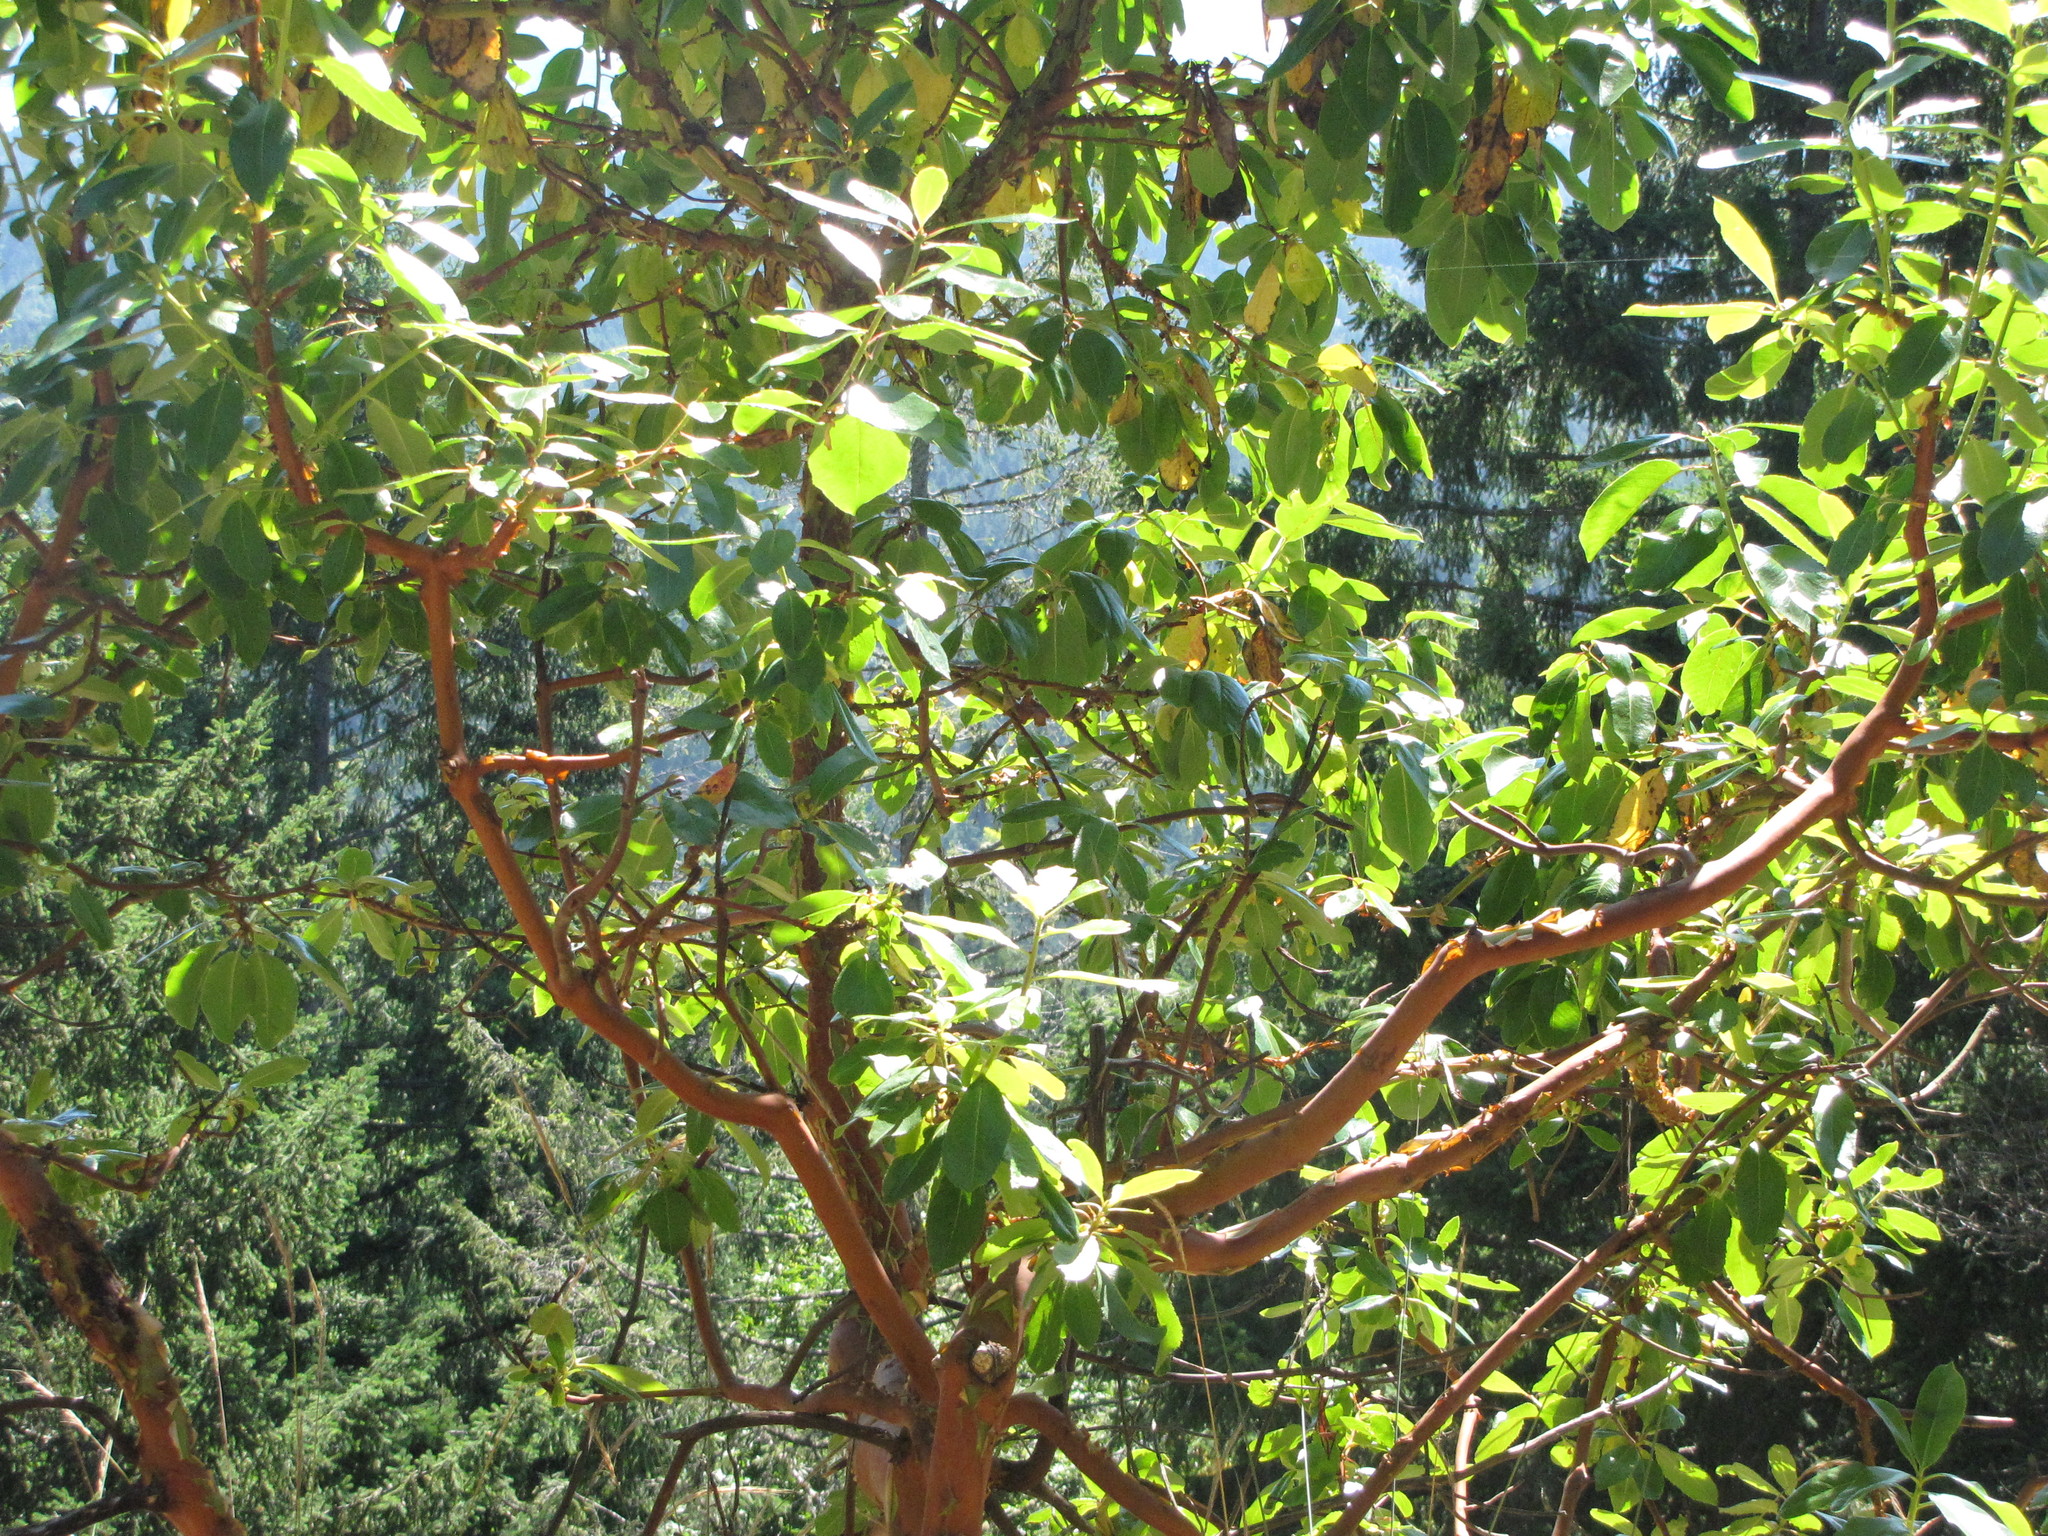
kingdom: Plantae
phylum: Tracheophyta
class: Magnoliopsida
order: Ericales
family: Ericaceae
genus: Arbutus
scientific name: Arbutus menziesii
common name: Pacific madrone
